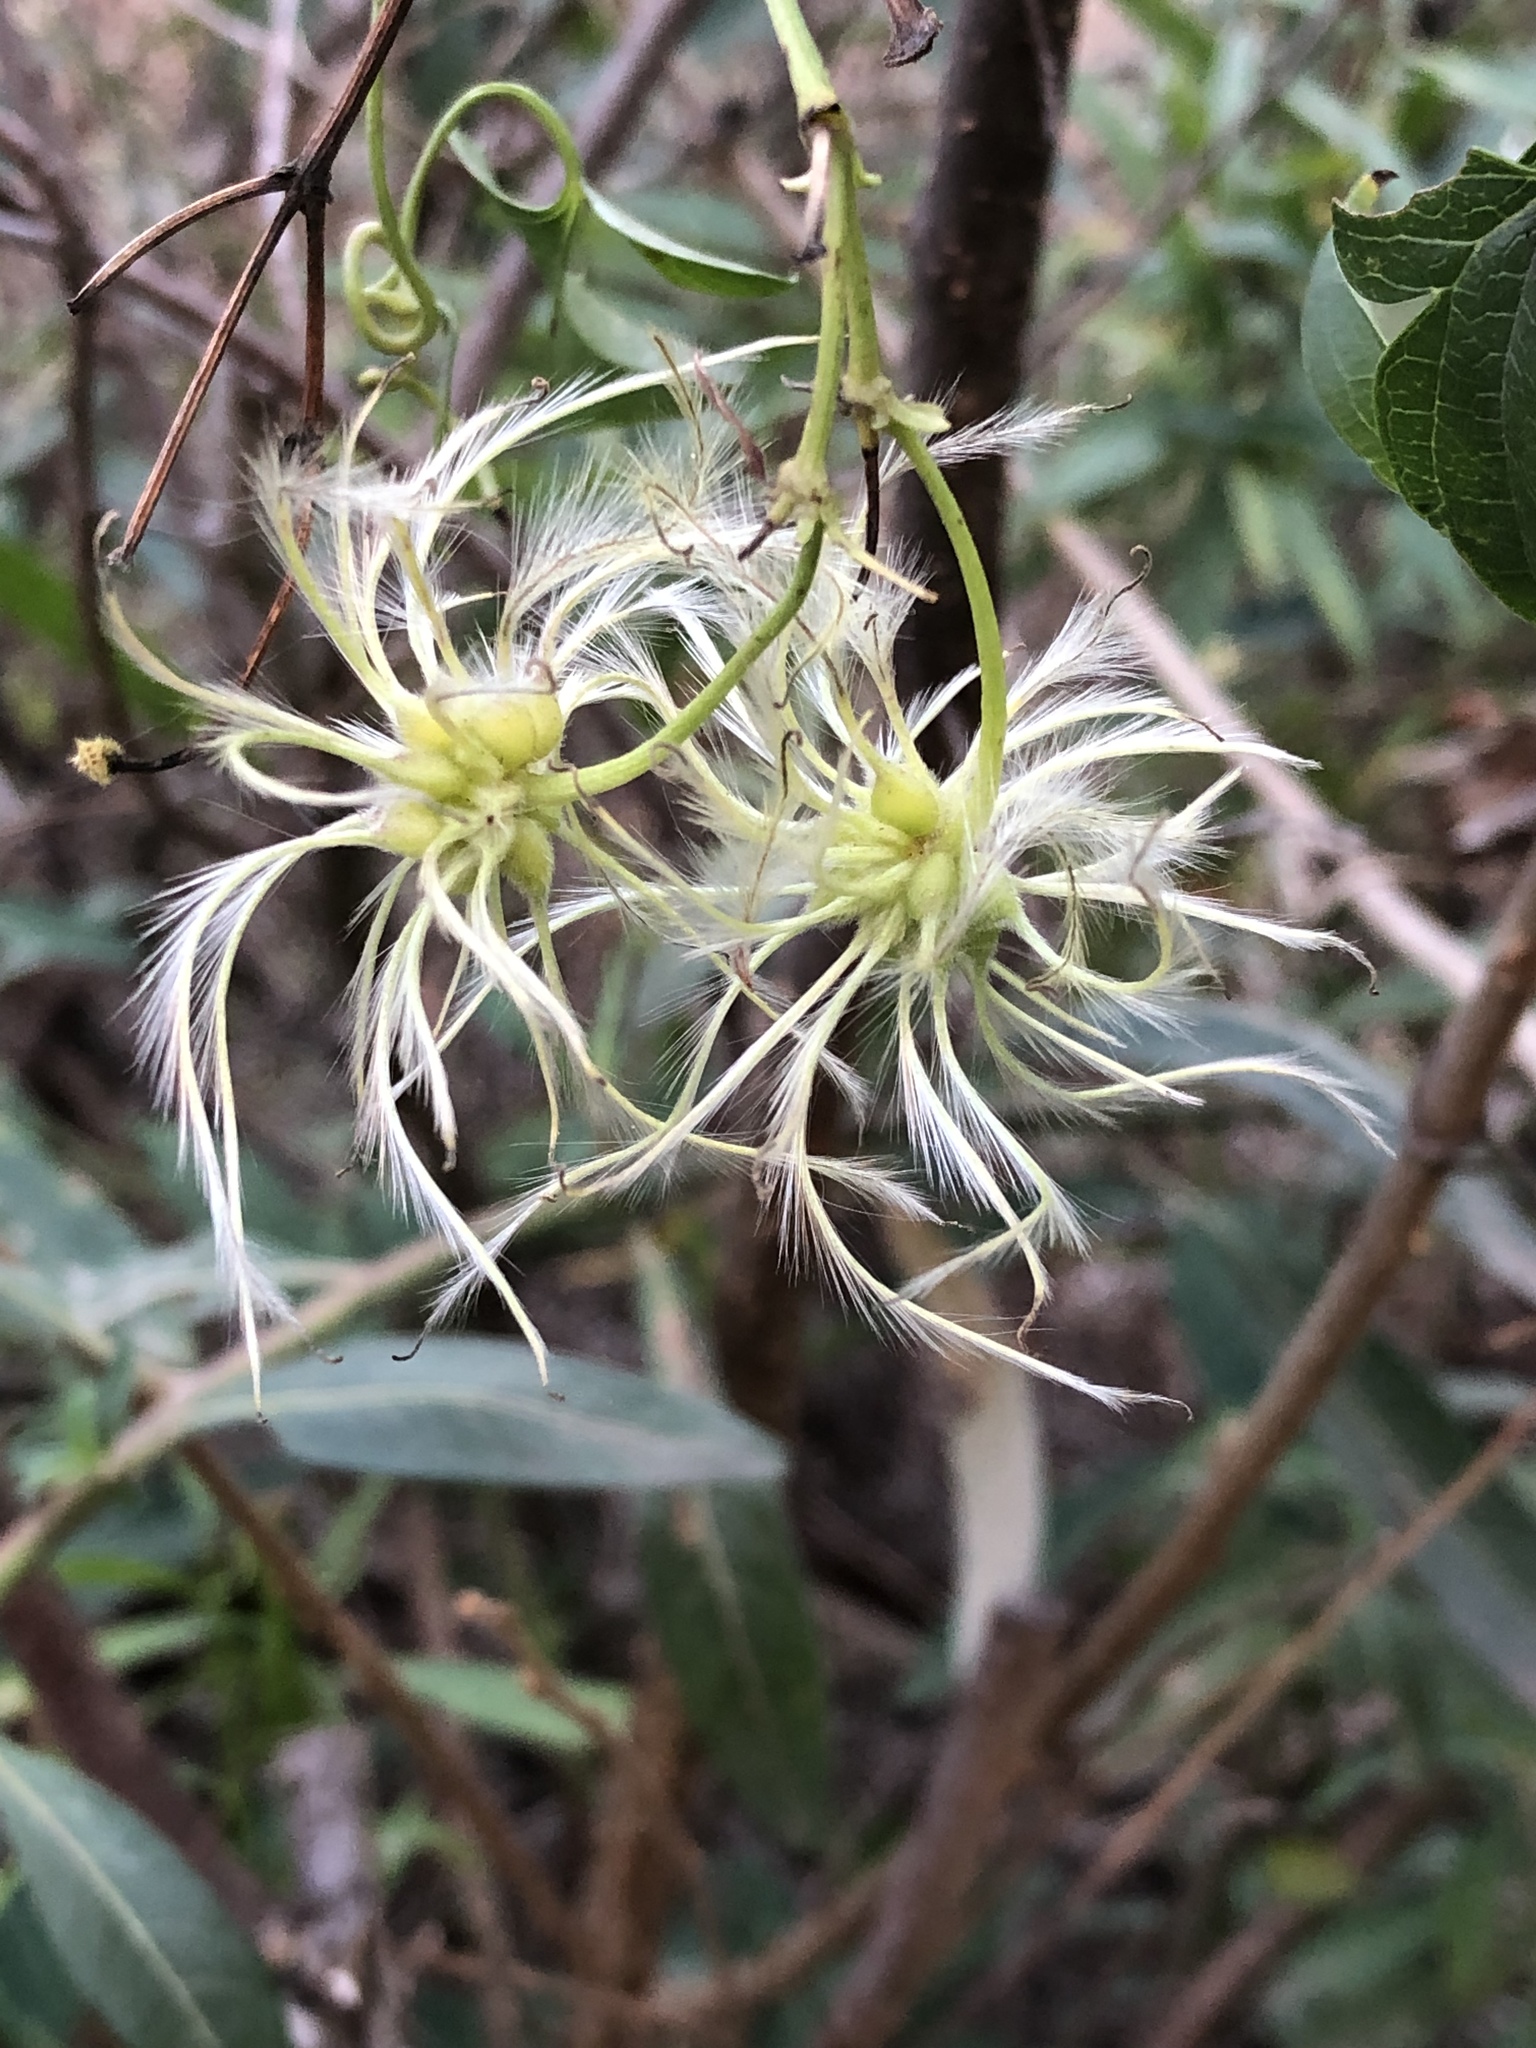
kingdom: Plantae
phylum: Tracheophyta
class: Magnoliopsida
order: Ranunculales
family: Ranunculaceae
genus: Clematis
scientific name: Clematis brachiata
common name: Traveler's-joy
